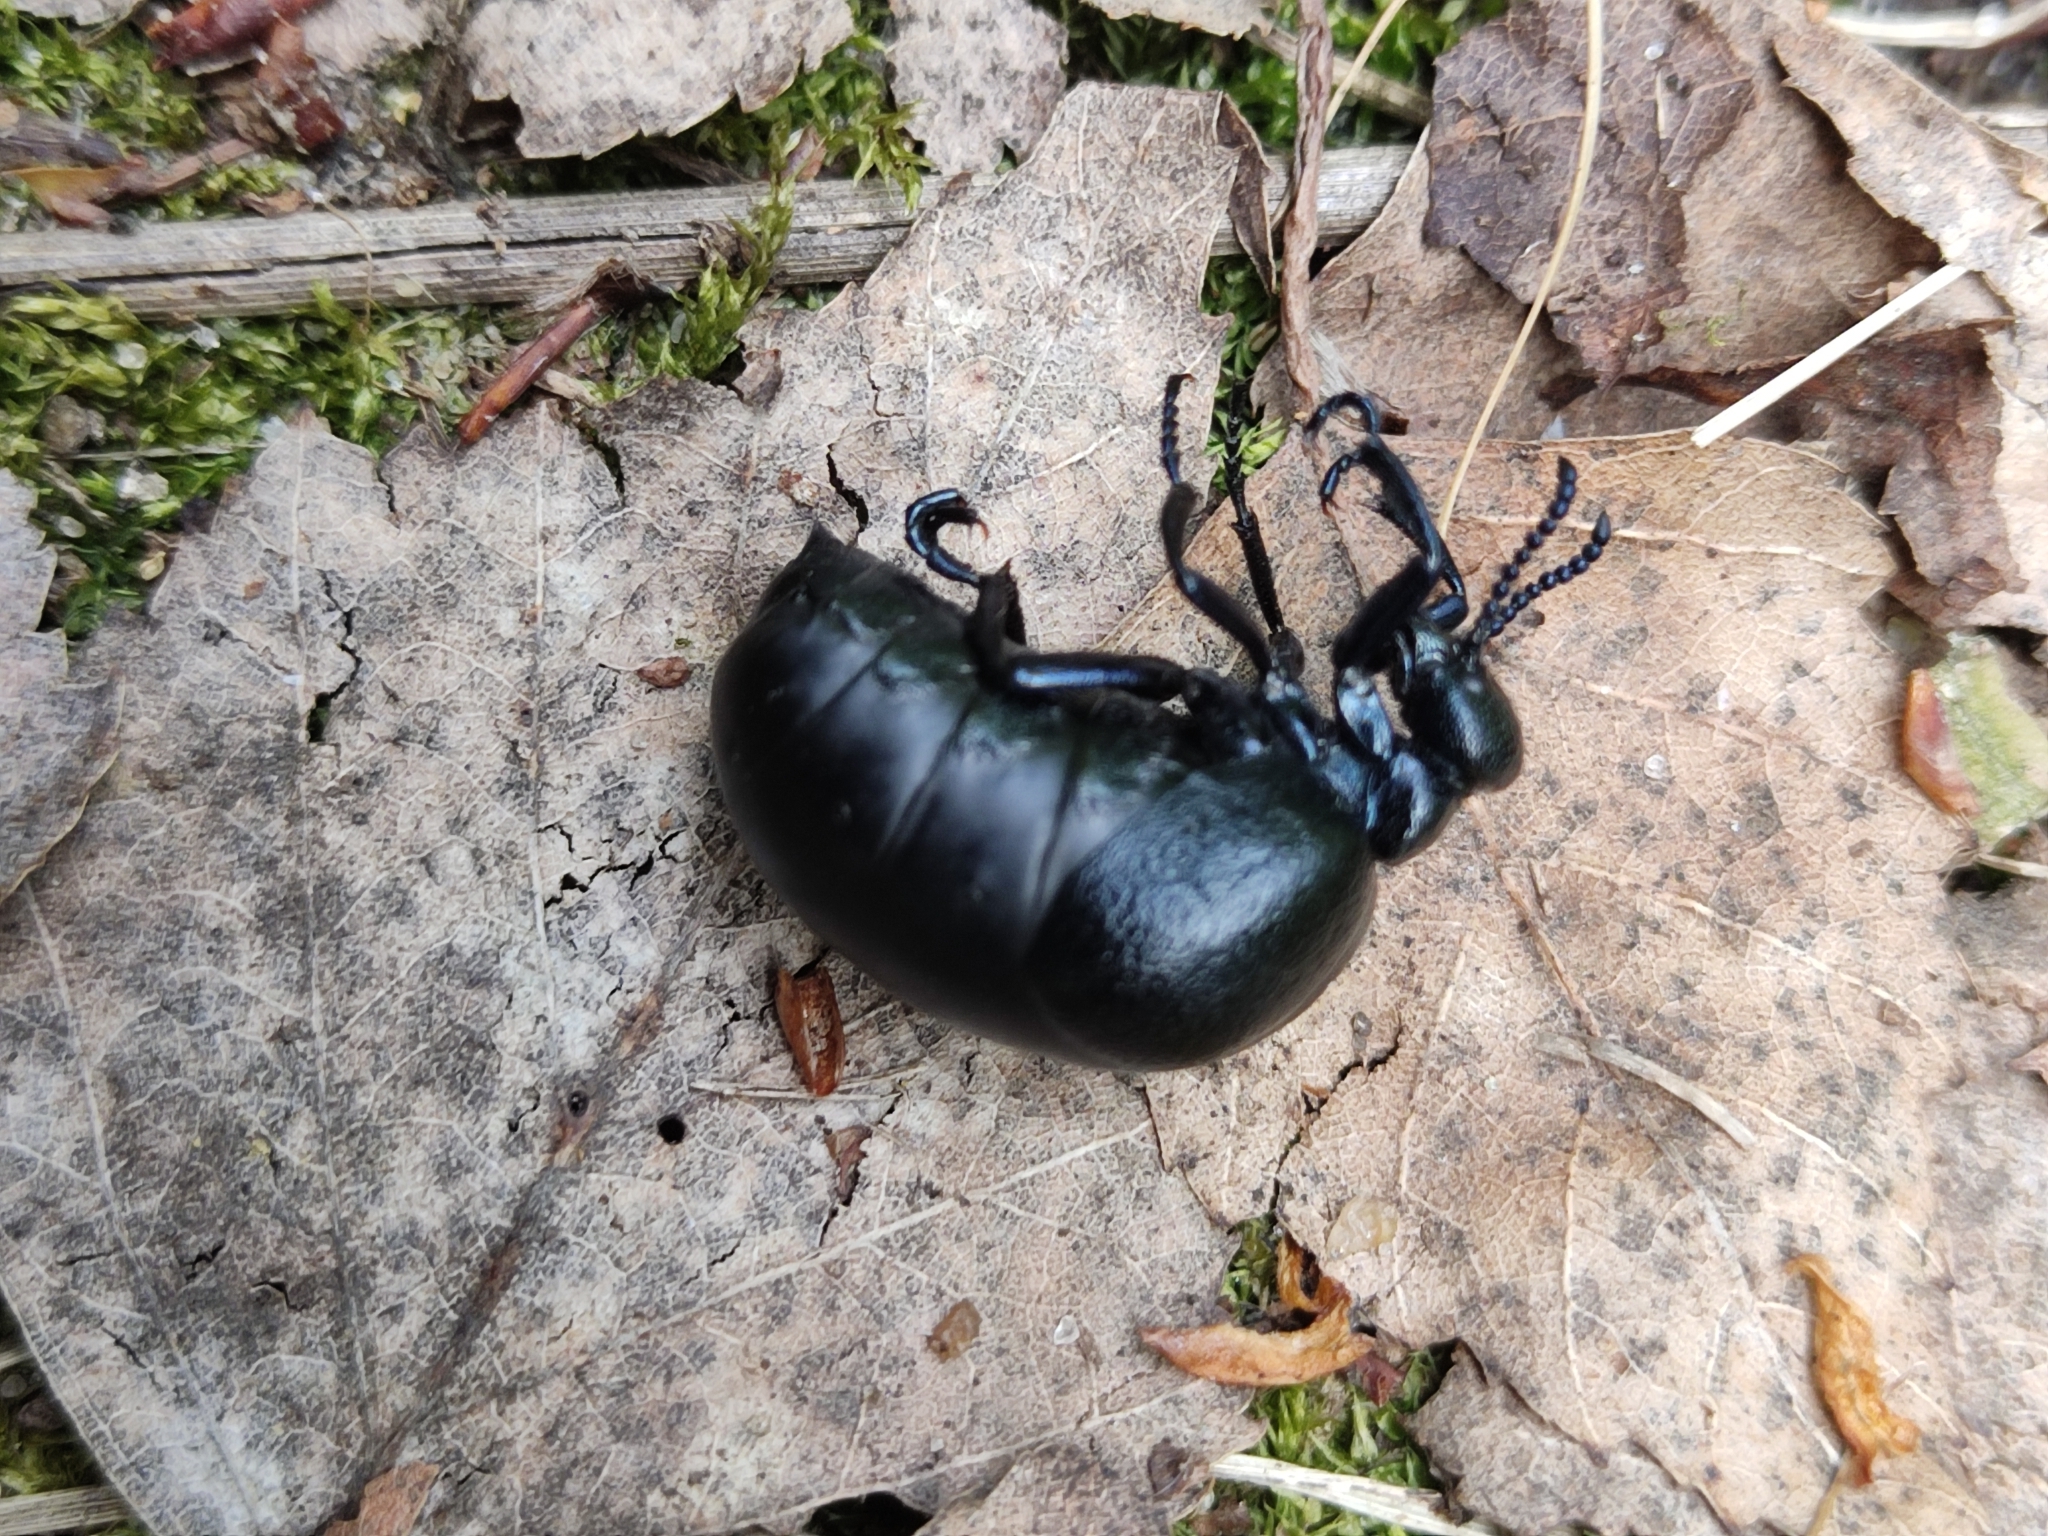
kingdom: Animalia
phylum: Arthropoda
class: Insecta
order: Coleoptera
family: Meloidae
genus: Meloe
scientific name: Meloe brevicollis
